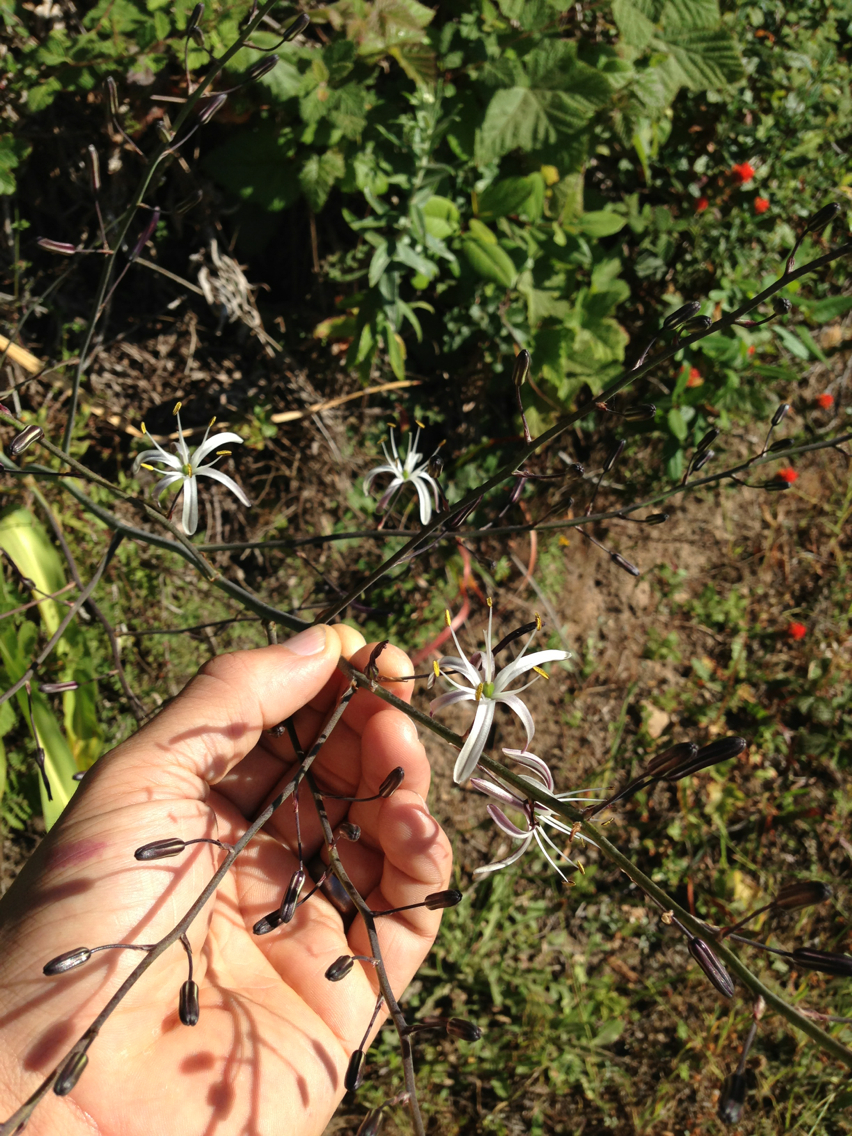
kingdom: Plantae
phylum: Tracheophyta
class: Liliopsida
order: Asparagales
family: Asparagaceae
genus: Chlorogalum
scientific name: Chlorogalum pomeridianum
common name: Amole
